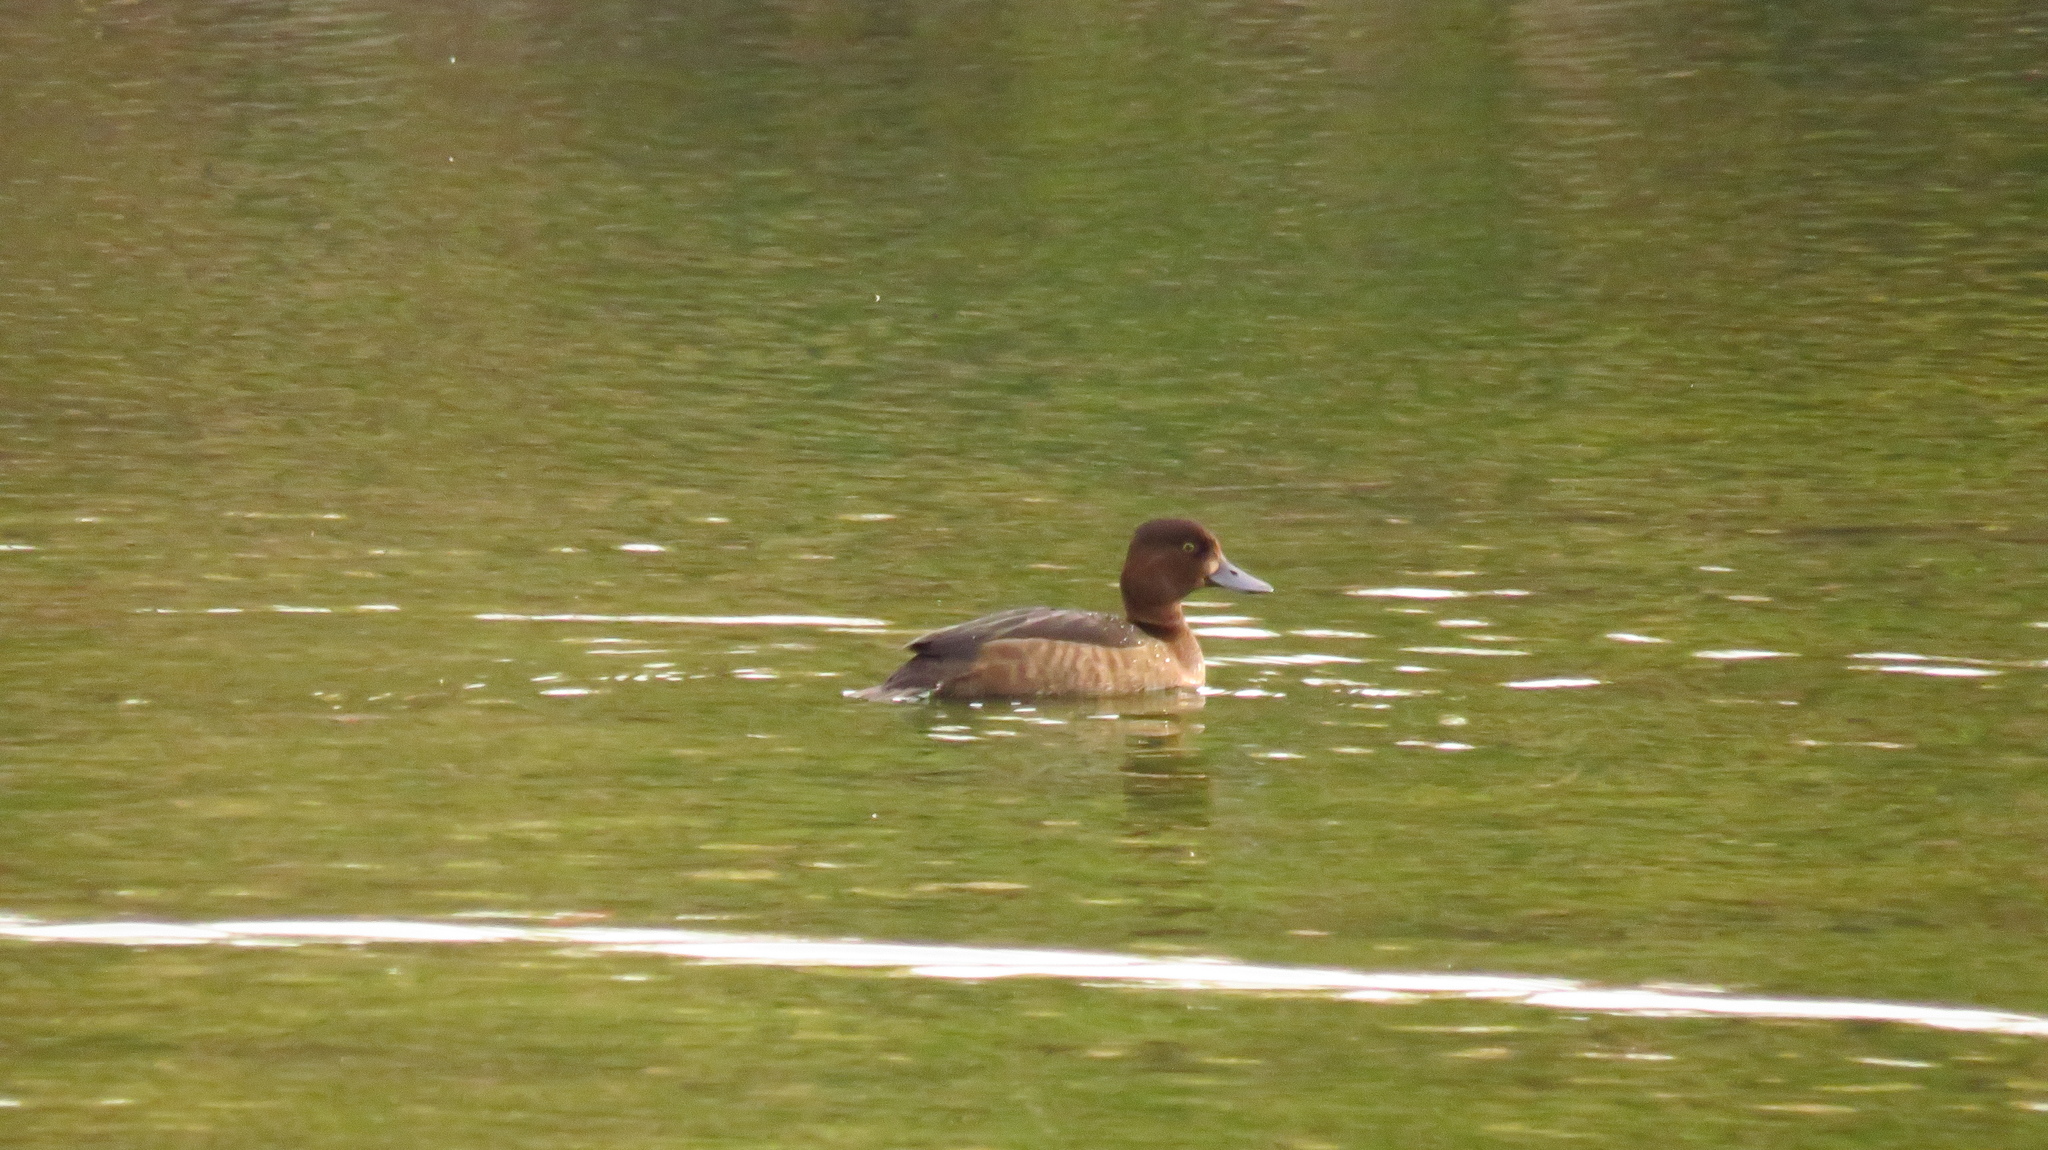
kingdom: Animalia
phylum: Chordata
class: Aves
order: Anseriformes
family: Anatidae
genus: Aythya
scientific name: Aythya fuligula
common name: Tufted duck
